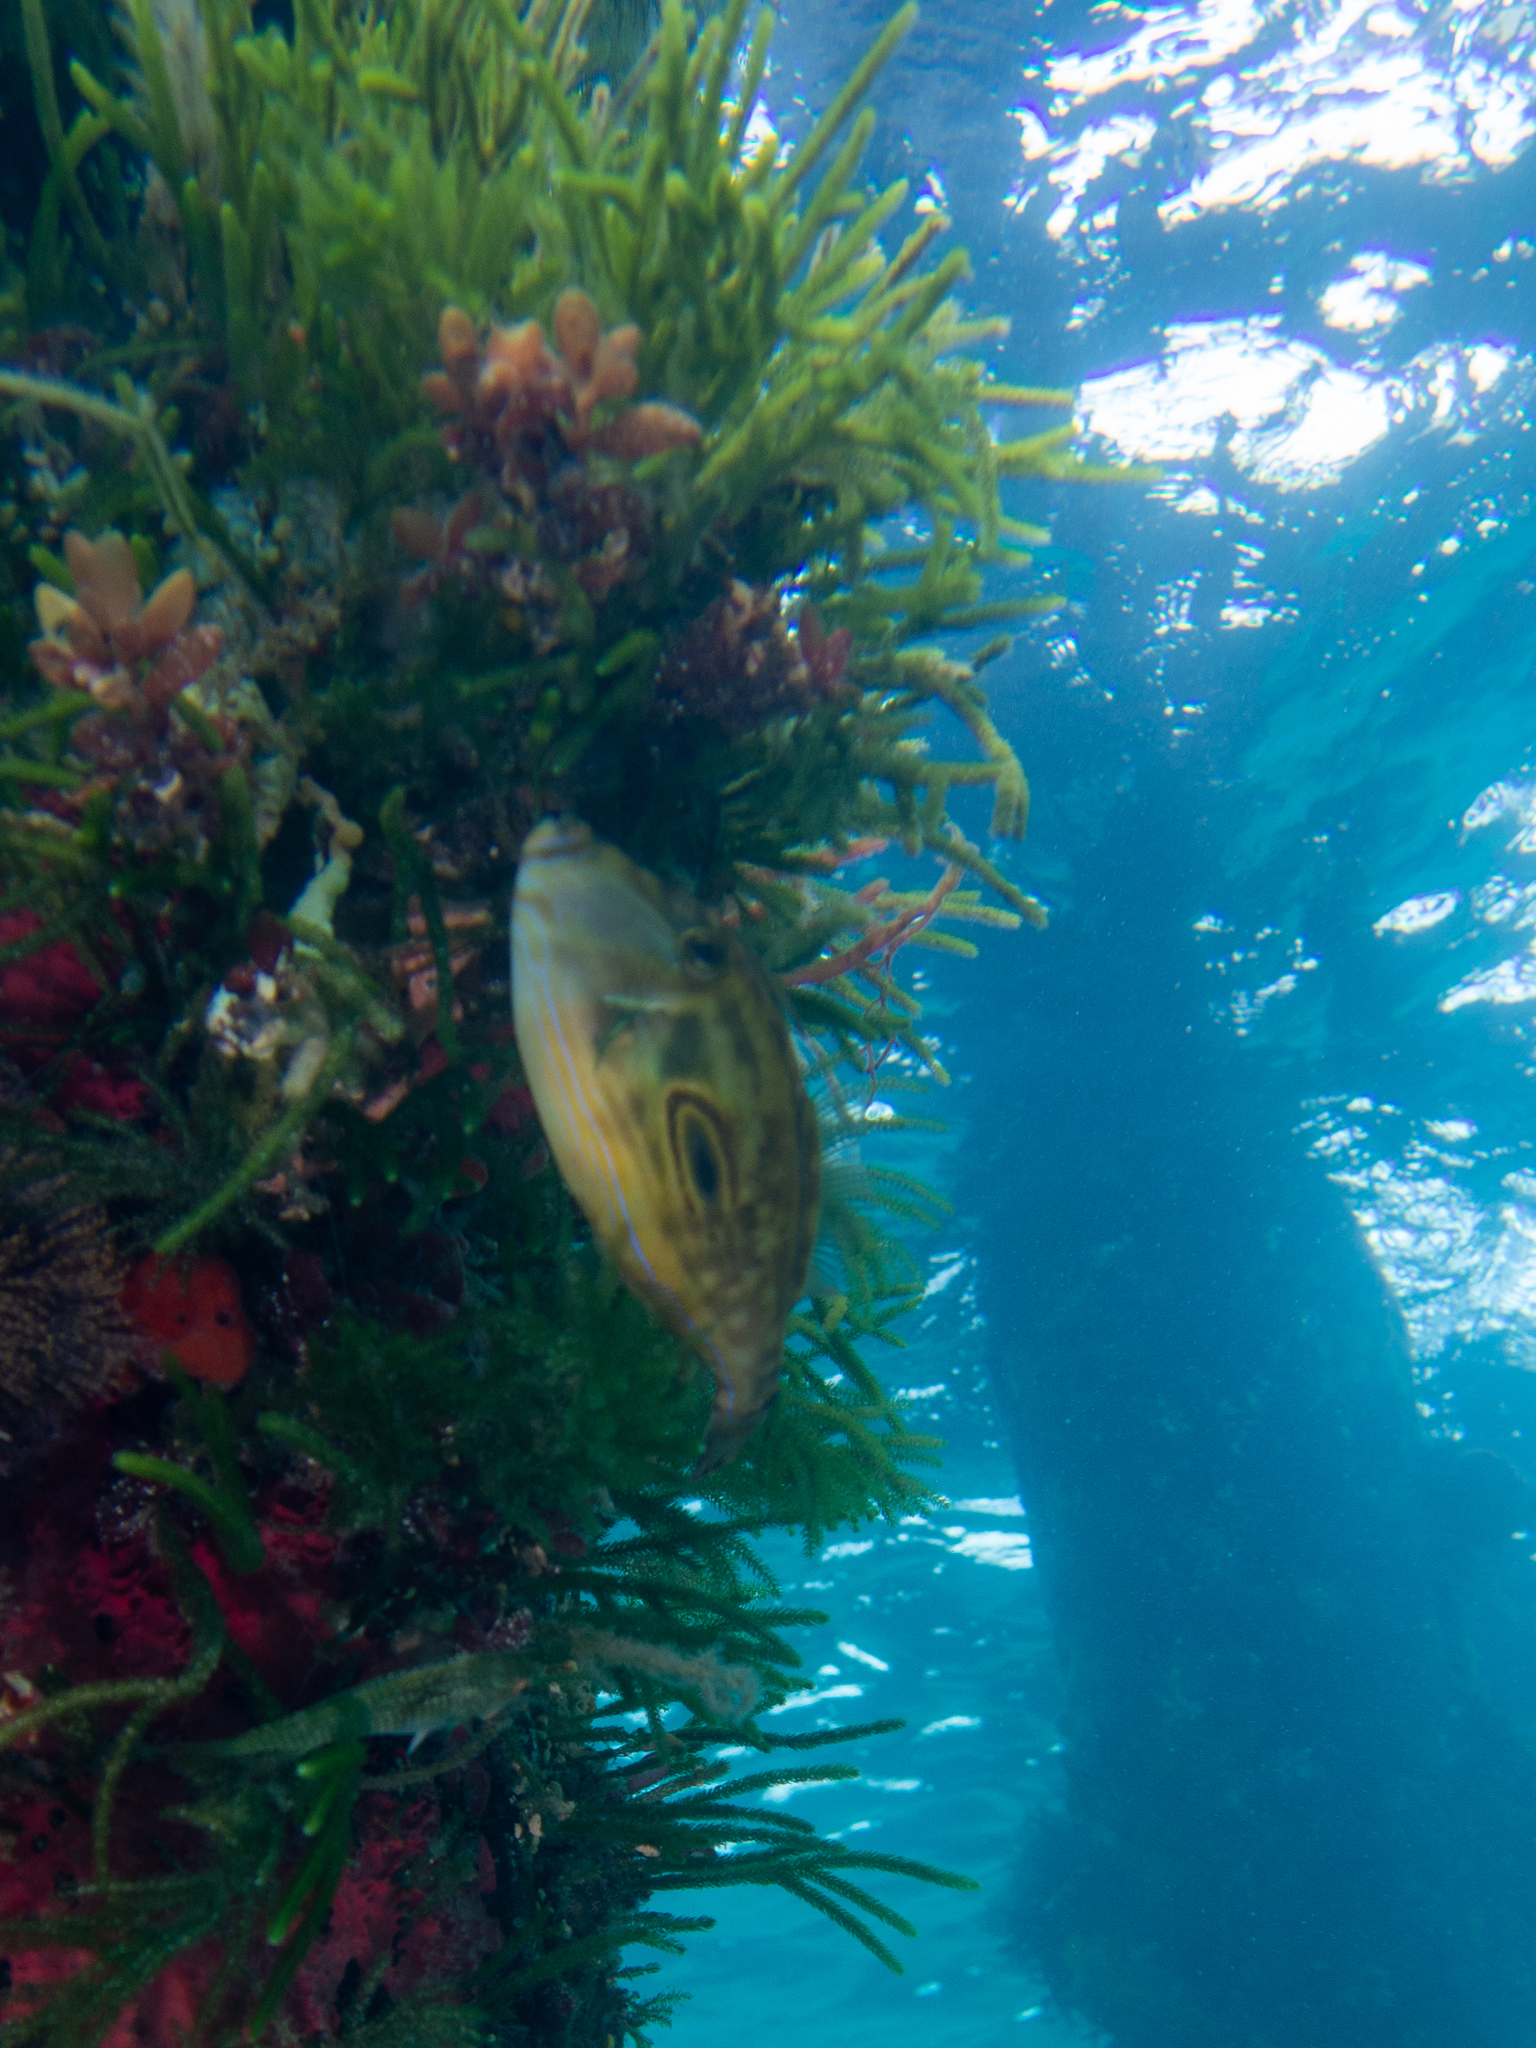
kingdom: Animalia
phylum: Chordata
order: Tetraodontiformes
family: Monacanthidae
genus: Meuschenia
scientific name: Meuschenia hippocrepis
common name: Horse-shoe leatherjacket
